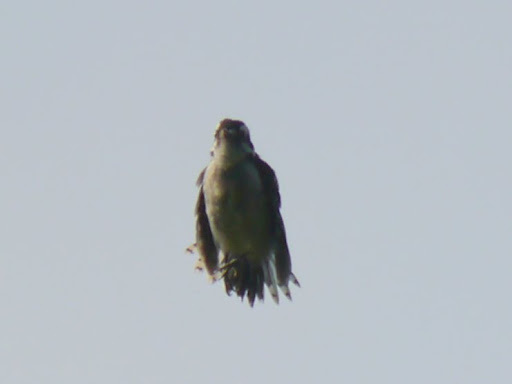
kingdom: Animalia
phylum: Chordata
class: Aves
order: Piciformes
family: Picidae
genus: Dryobates
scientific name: Dryobates pubescens
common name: Downy woodpecker
